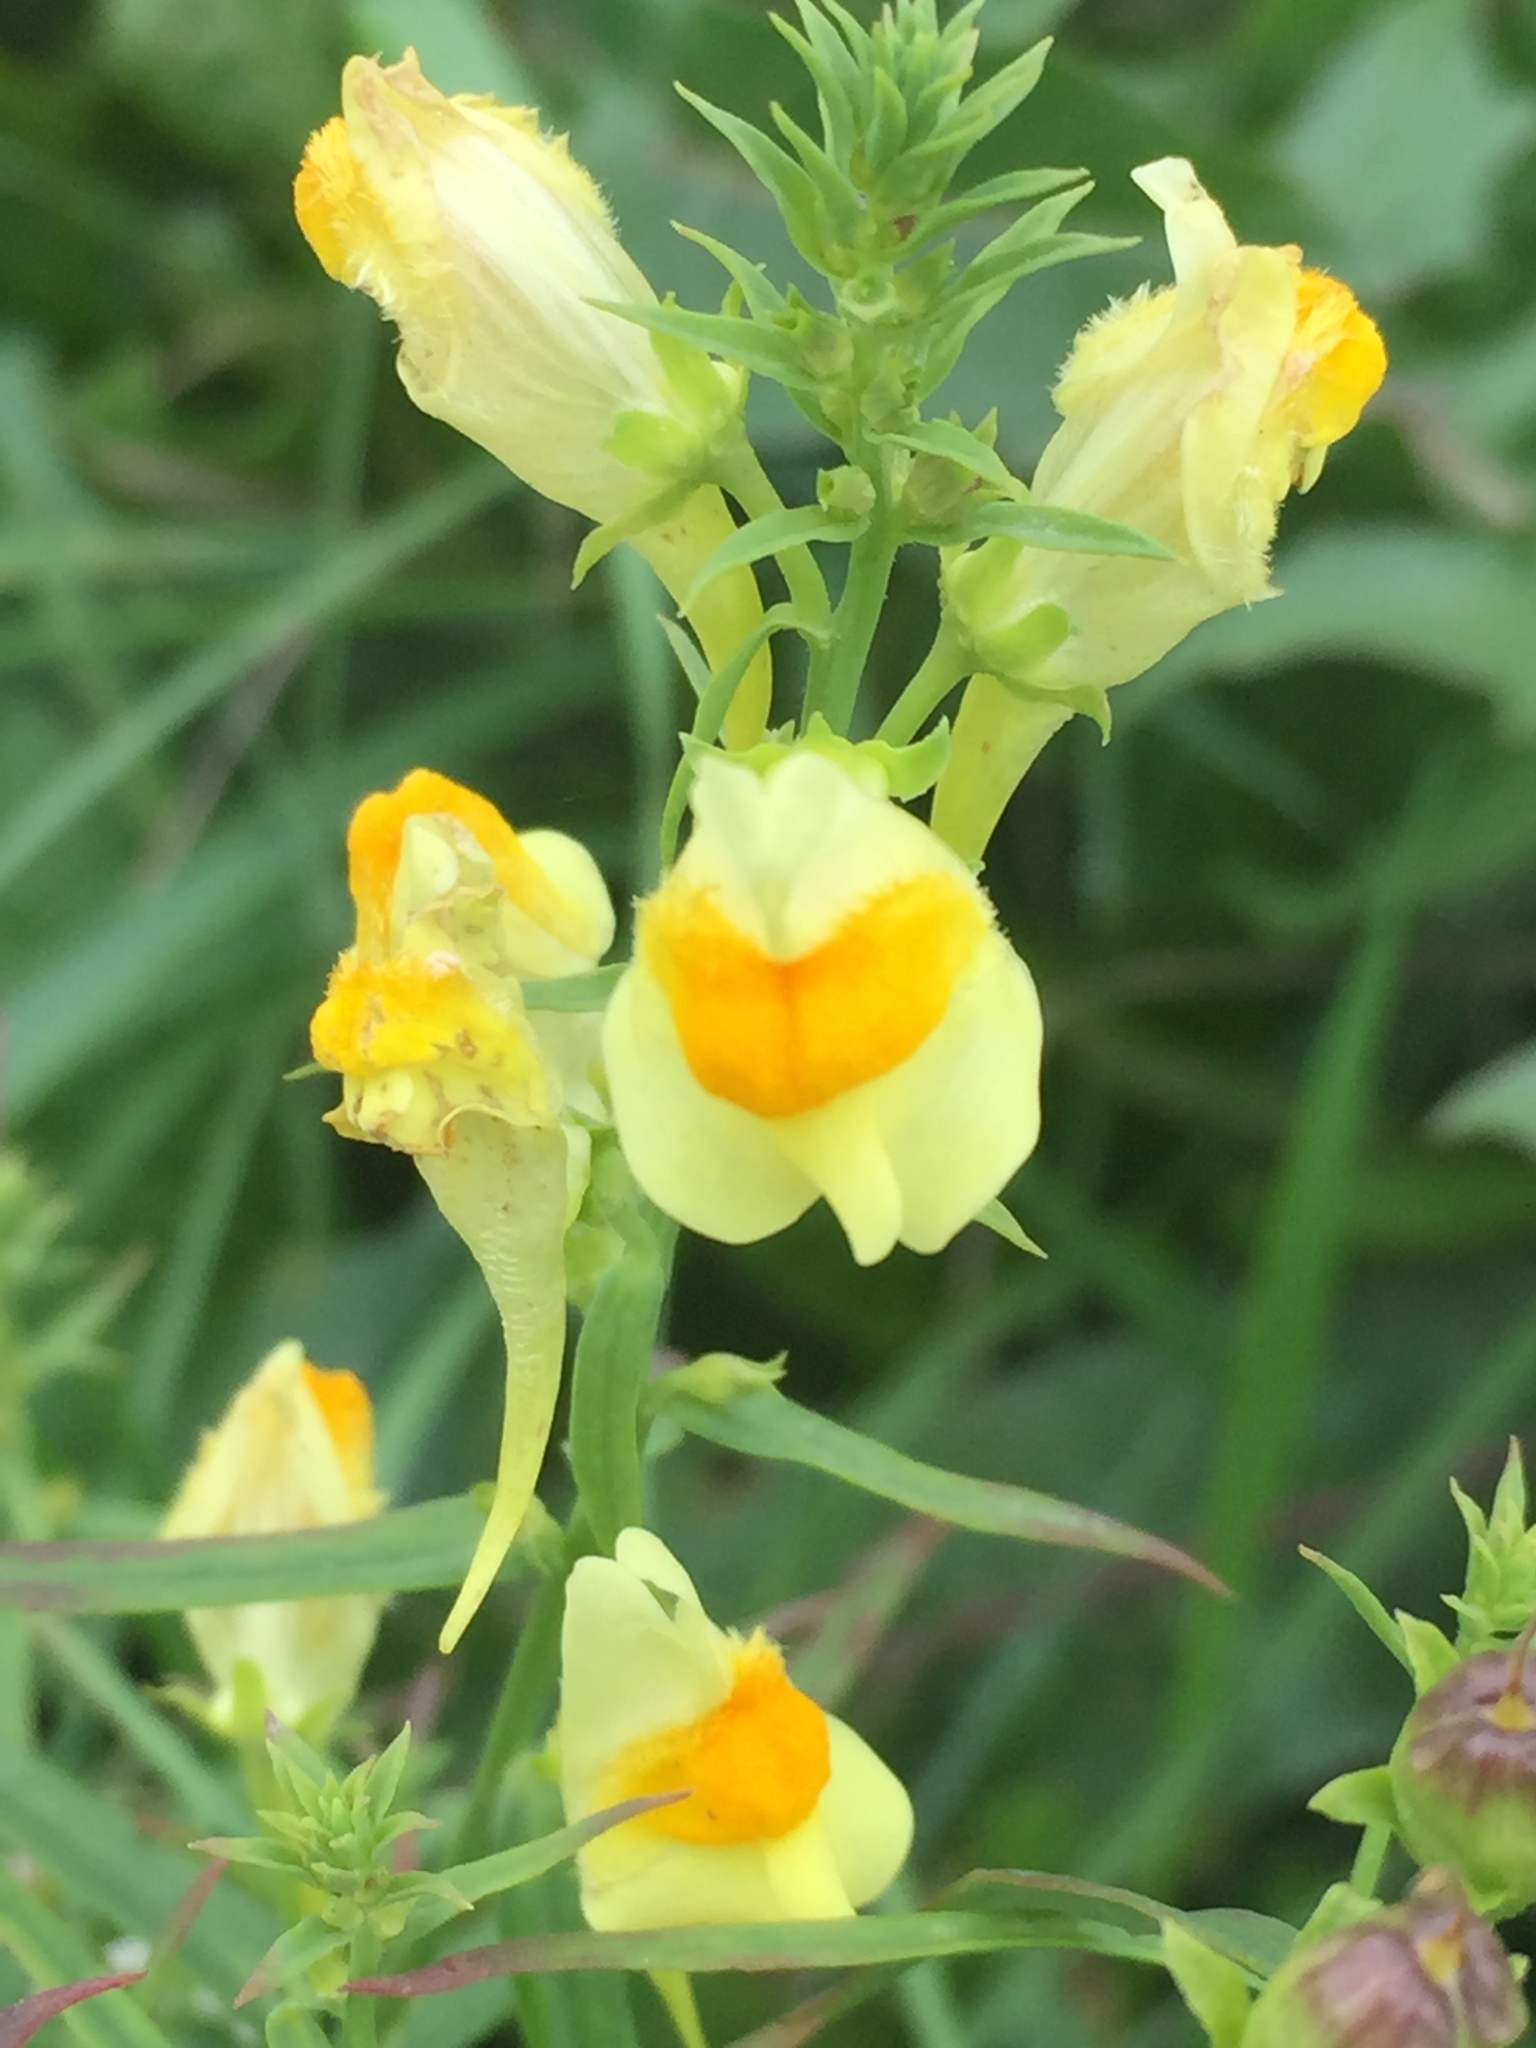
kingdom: Plantae
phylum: Tracheophyta
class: Magnoliopsida
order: Lamiales
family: Plantaginaceae
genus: Linaria
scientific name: Linaria vulgaris
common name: Butter and eggs
